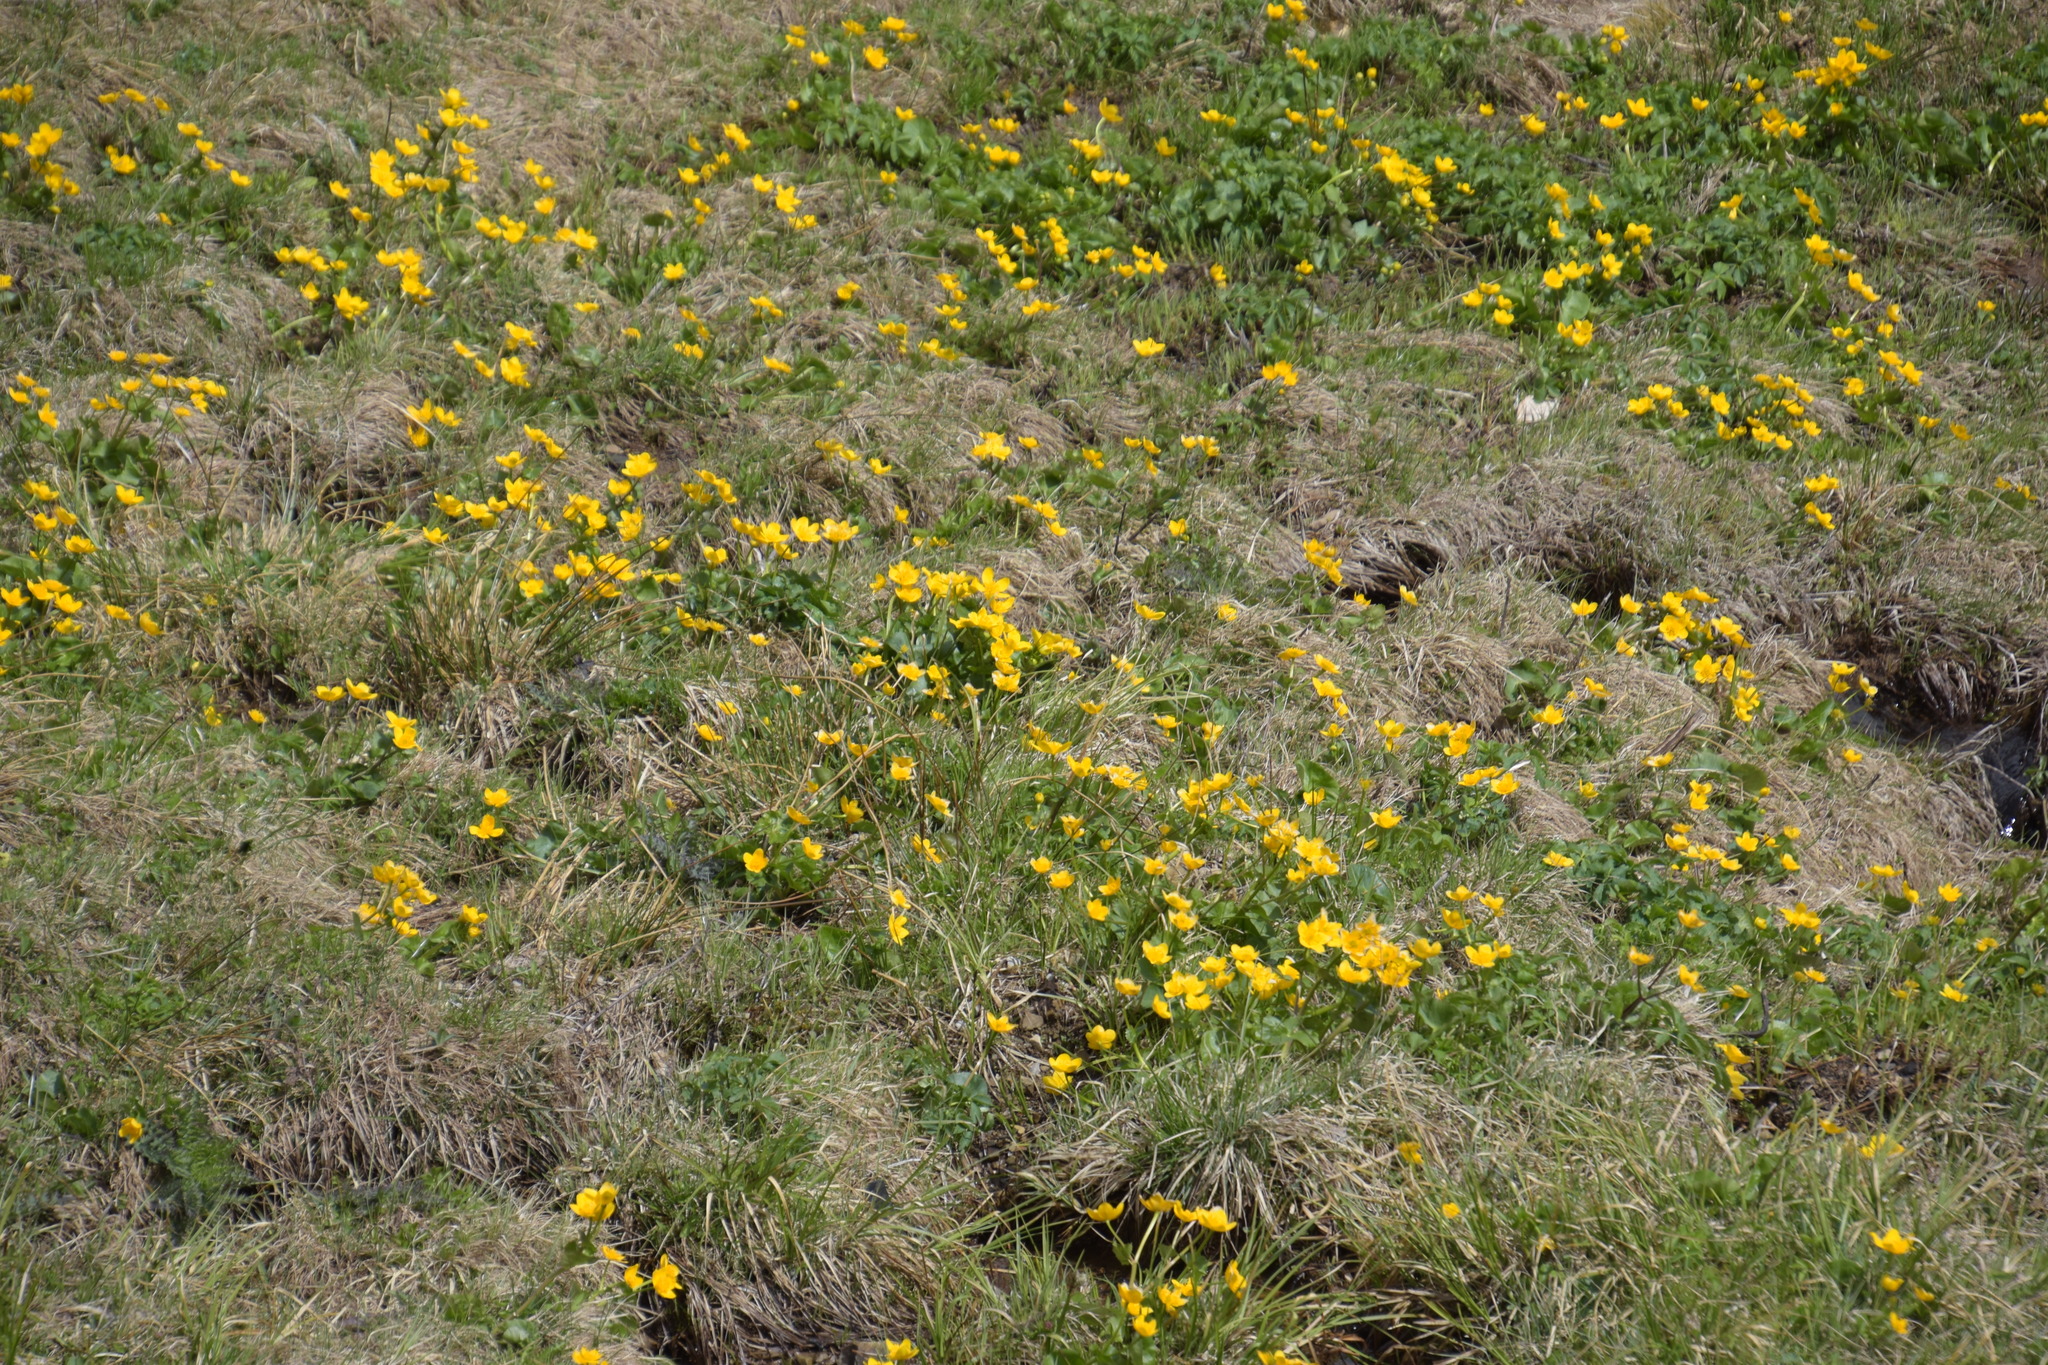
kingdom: Plantae
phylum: Tracheophyta
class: Magnoliopsida
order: Ranunculales
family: Ranunculaceae
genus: Caltha
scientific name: Caltha palustris
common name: Marsh marigold
